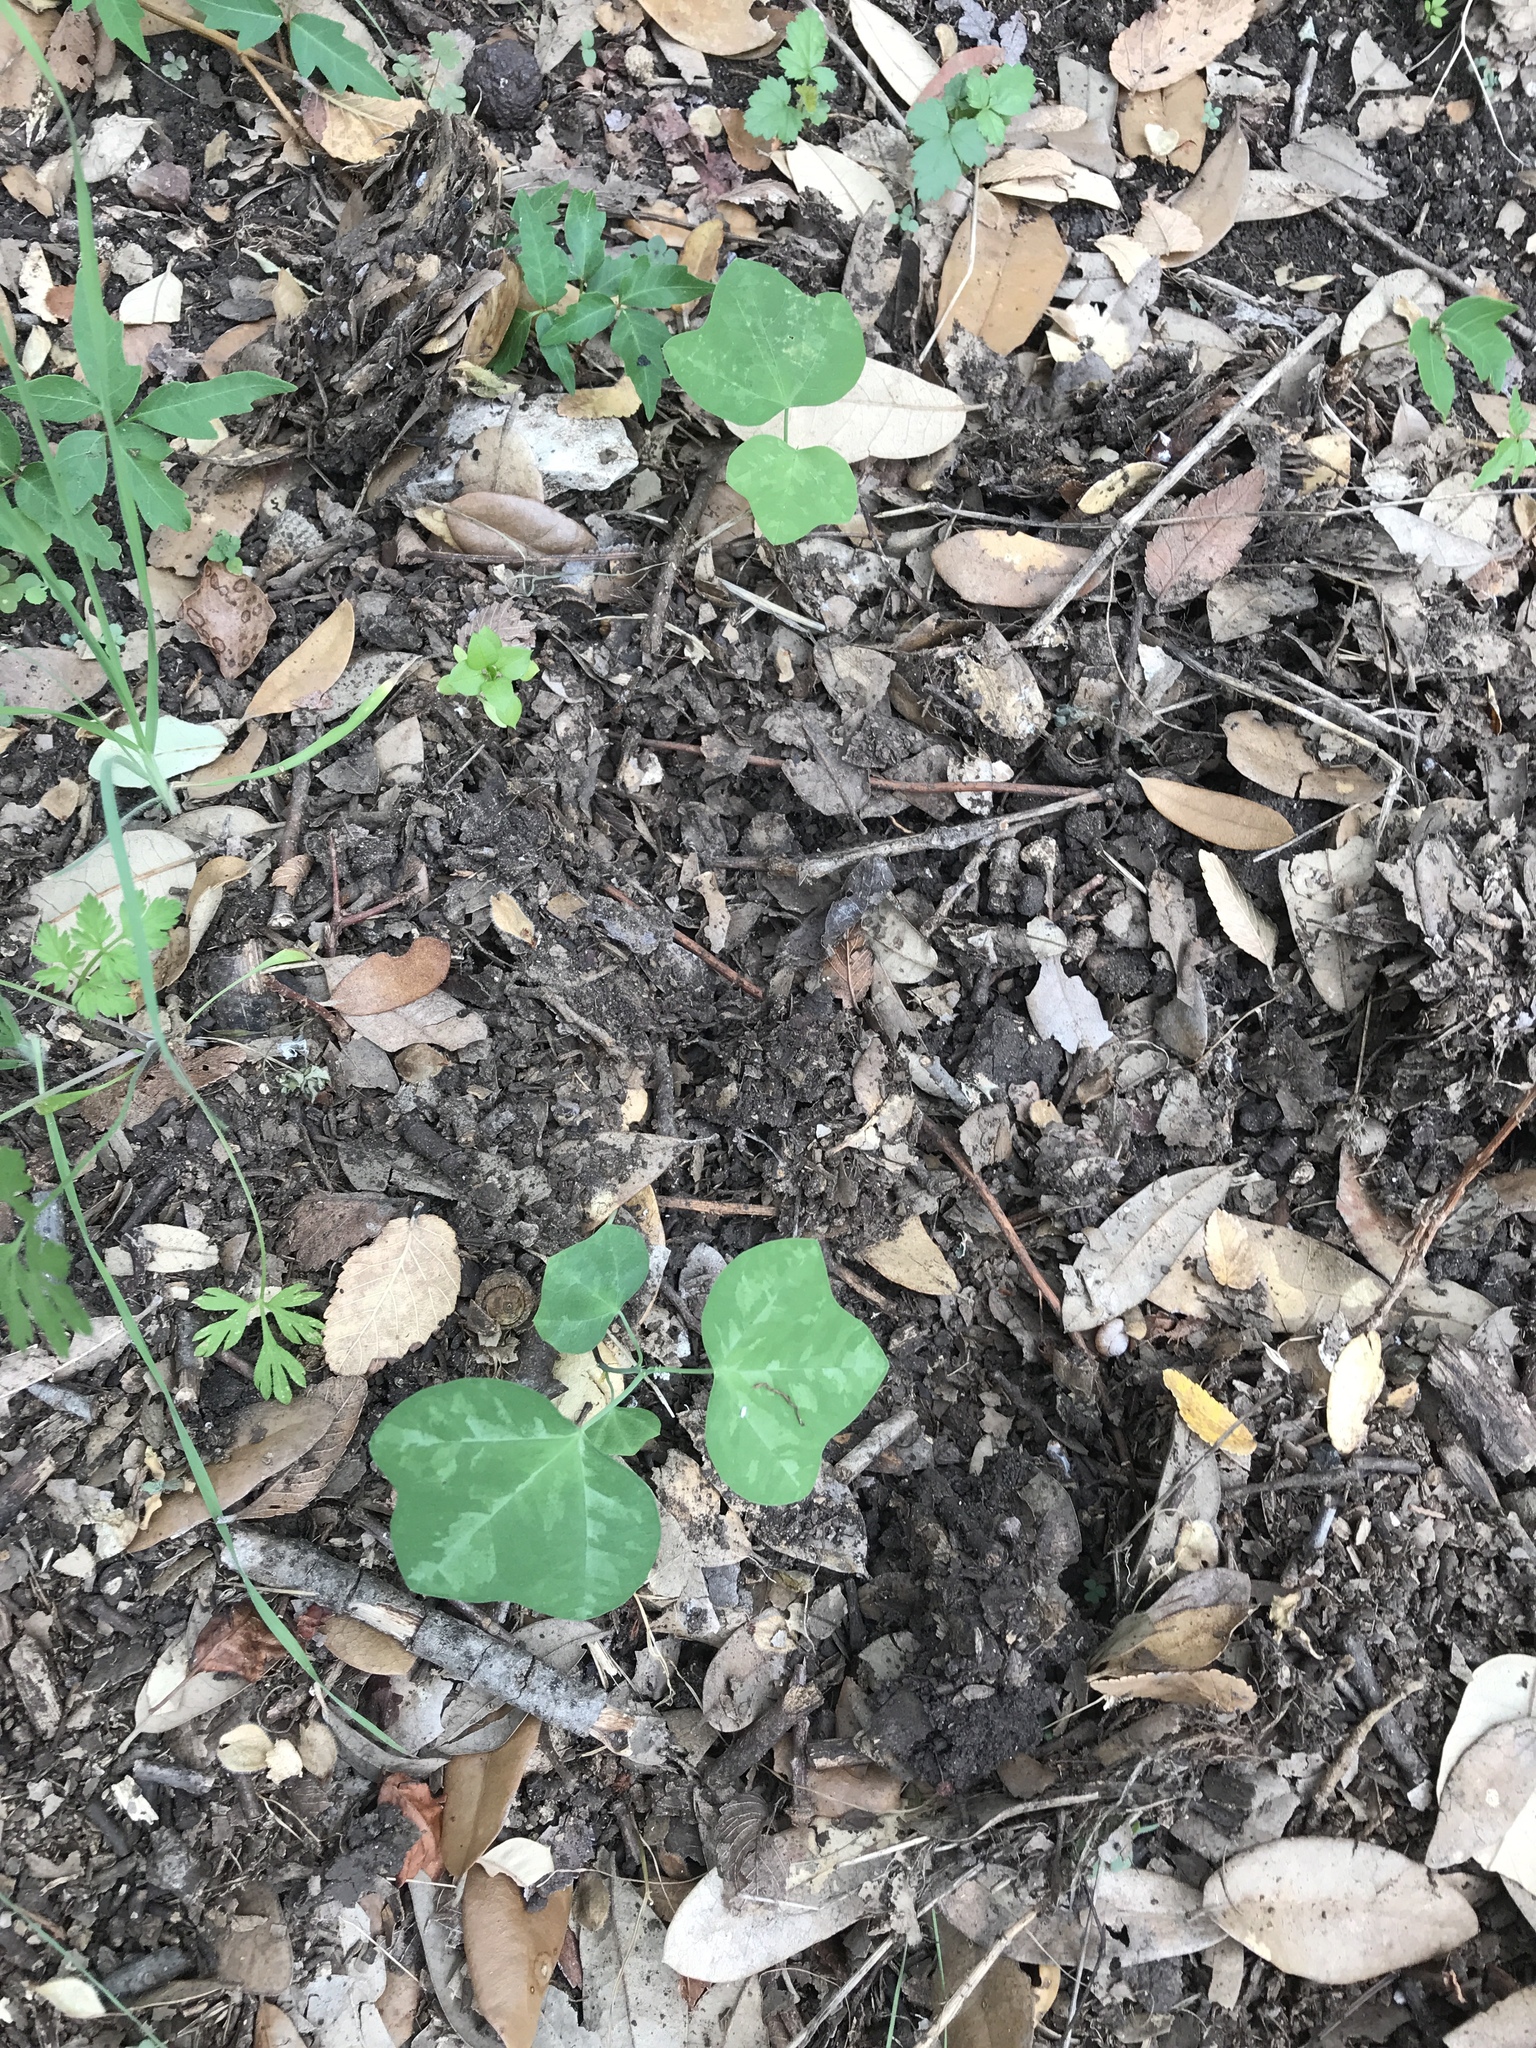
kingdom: Plantae
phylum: Tracheophyta
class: Magnoliopsida
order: Malpighiales
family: Passifloraceae
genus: Passiflora
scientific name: Passiflora lutea
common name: Yellow passionflower
